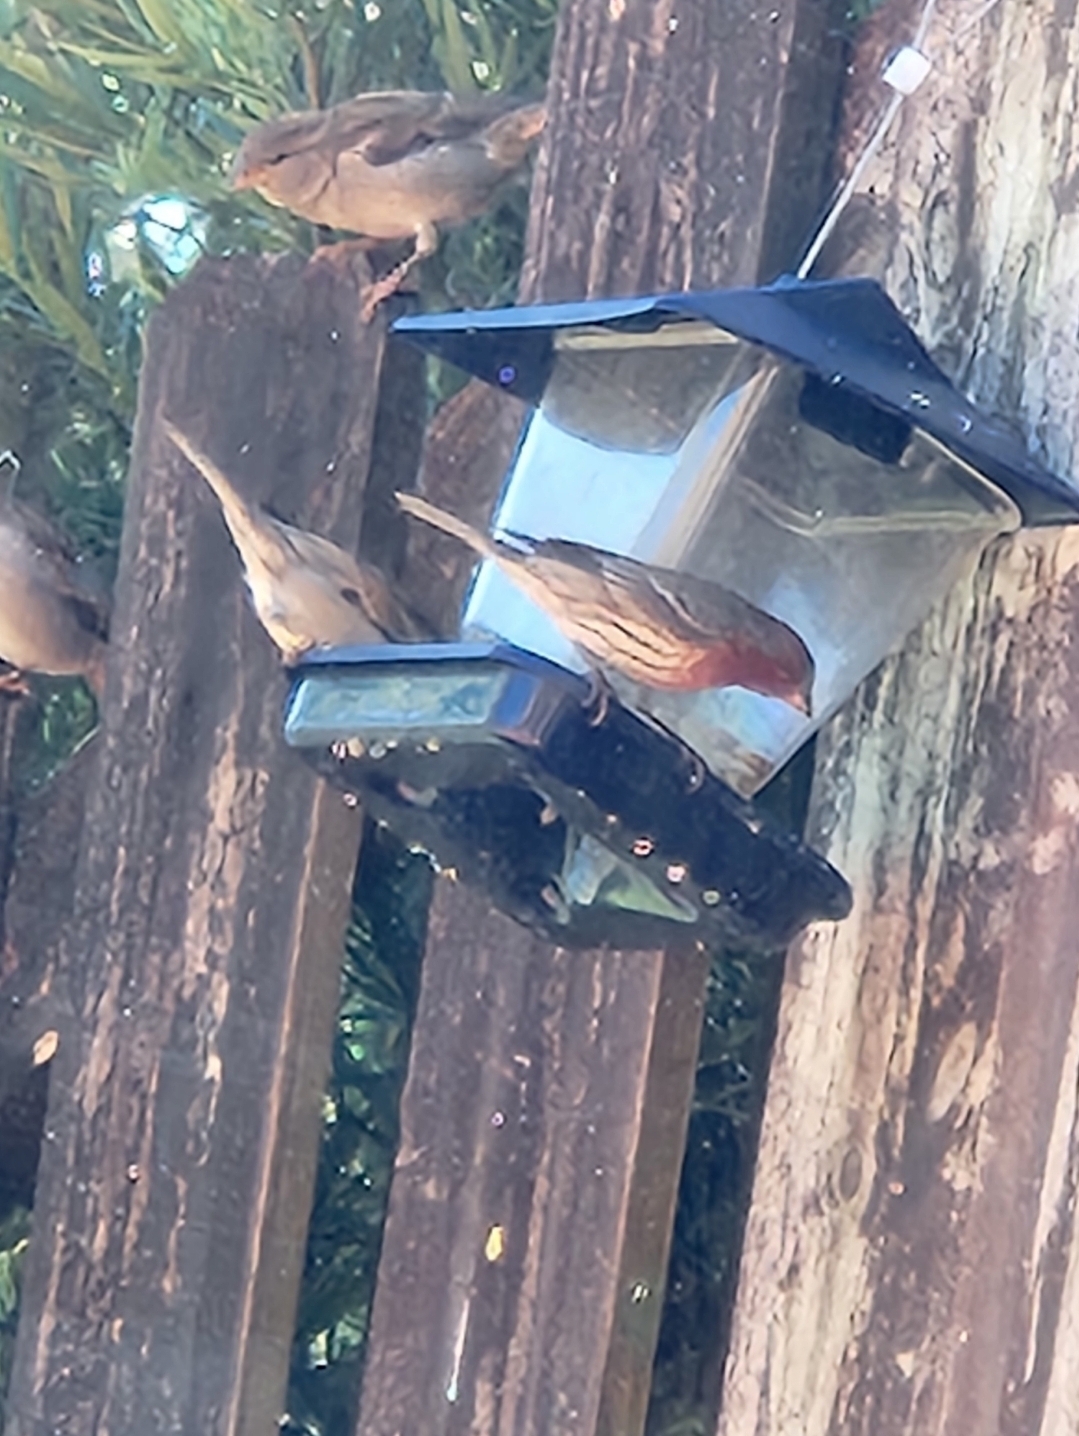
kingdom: Animalia
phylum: Chordata
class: Aves
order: Passeriformes
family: Fringillidae
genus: Haemorhous
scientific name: Haemorhous mexicanus
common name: House finch
